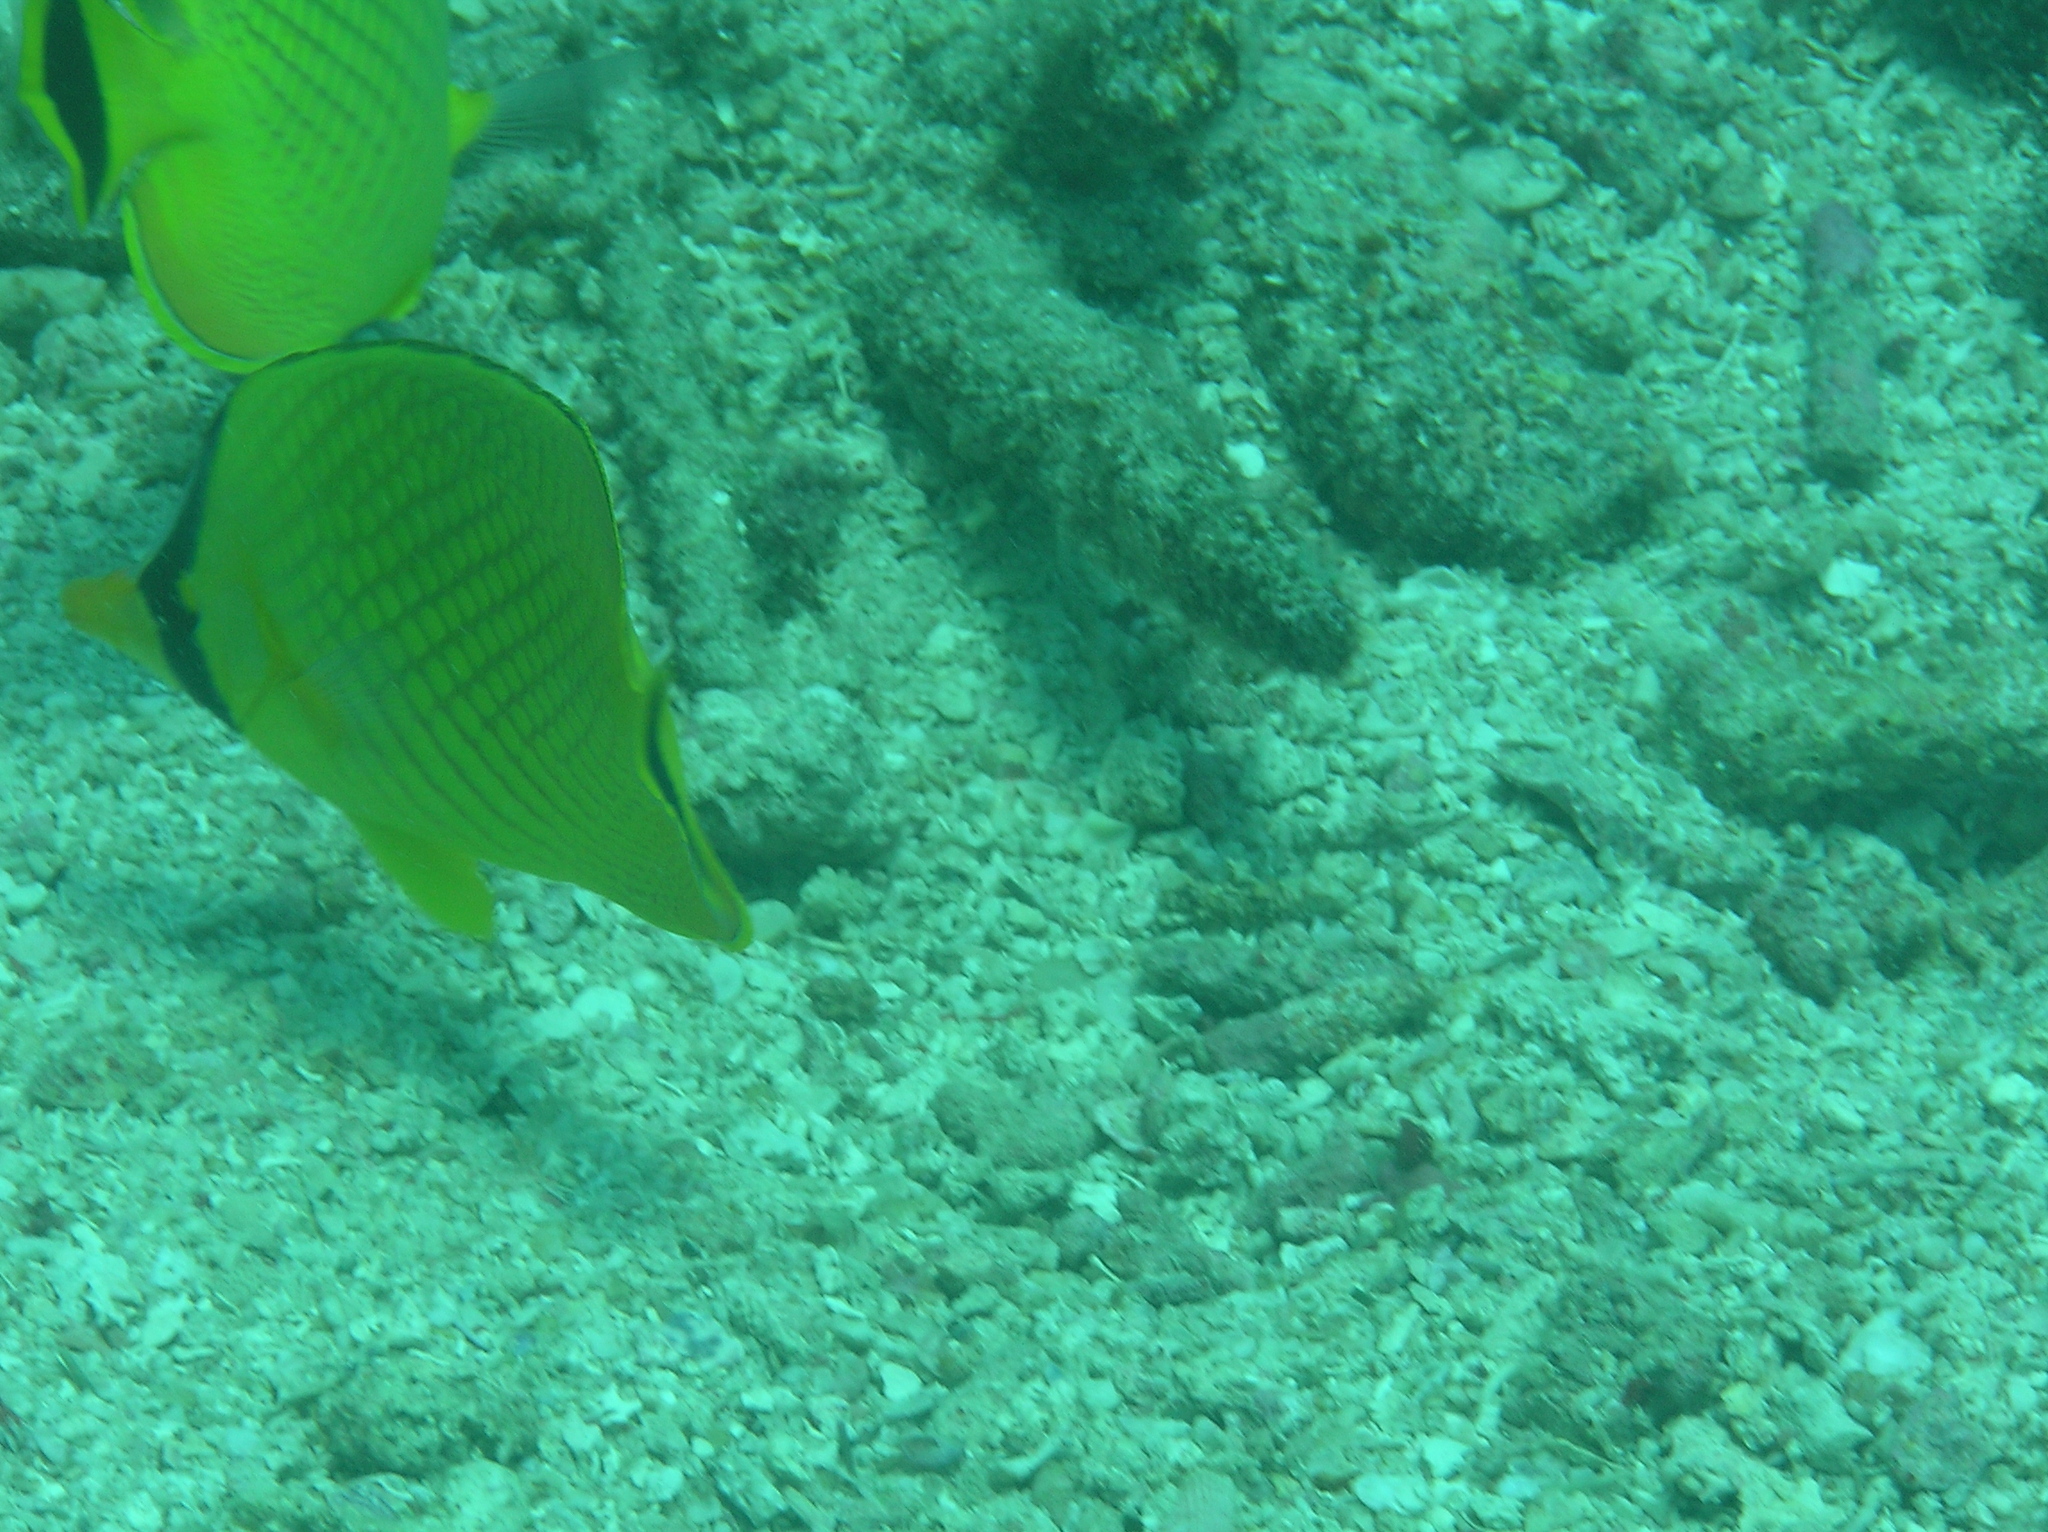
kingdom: Animalia
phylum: Chordata
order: Perciformes
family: Chaetodontidae
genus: Chaetodon
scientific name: Chaetodon rafflesii
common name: Latticed butterflyfish
